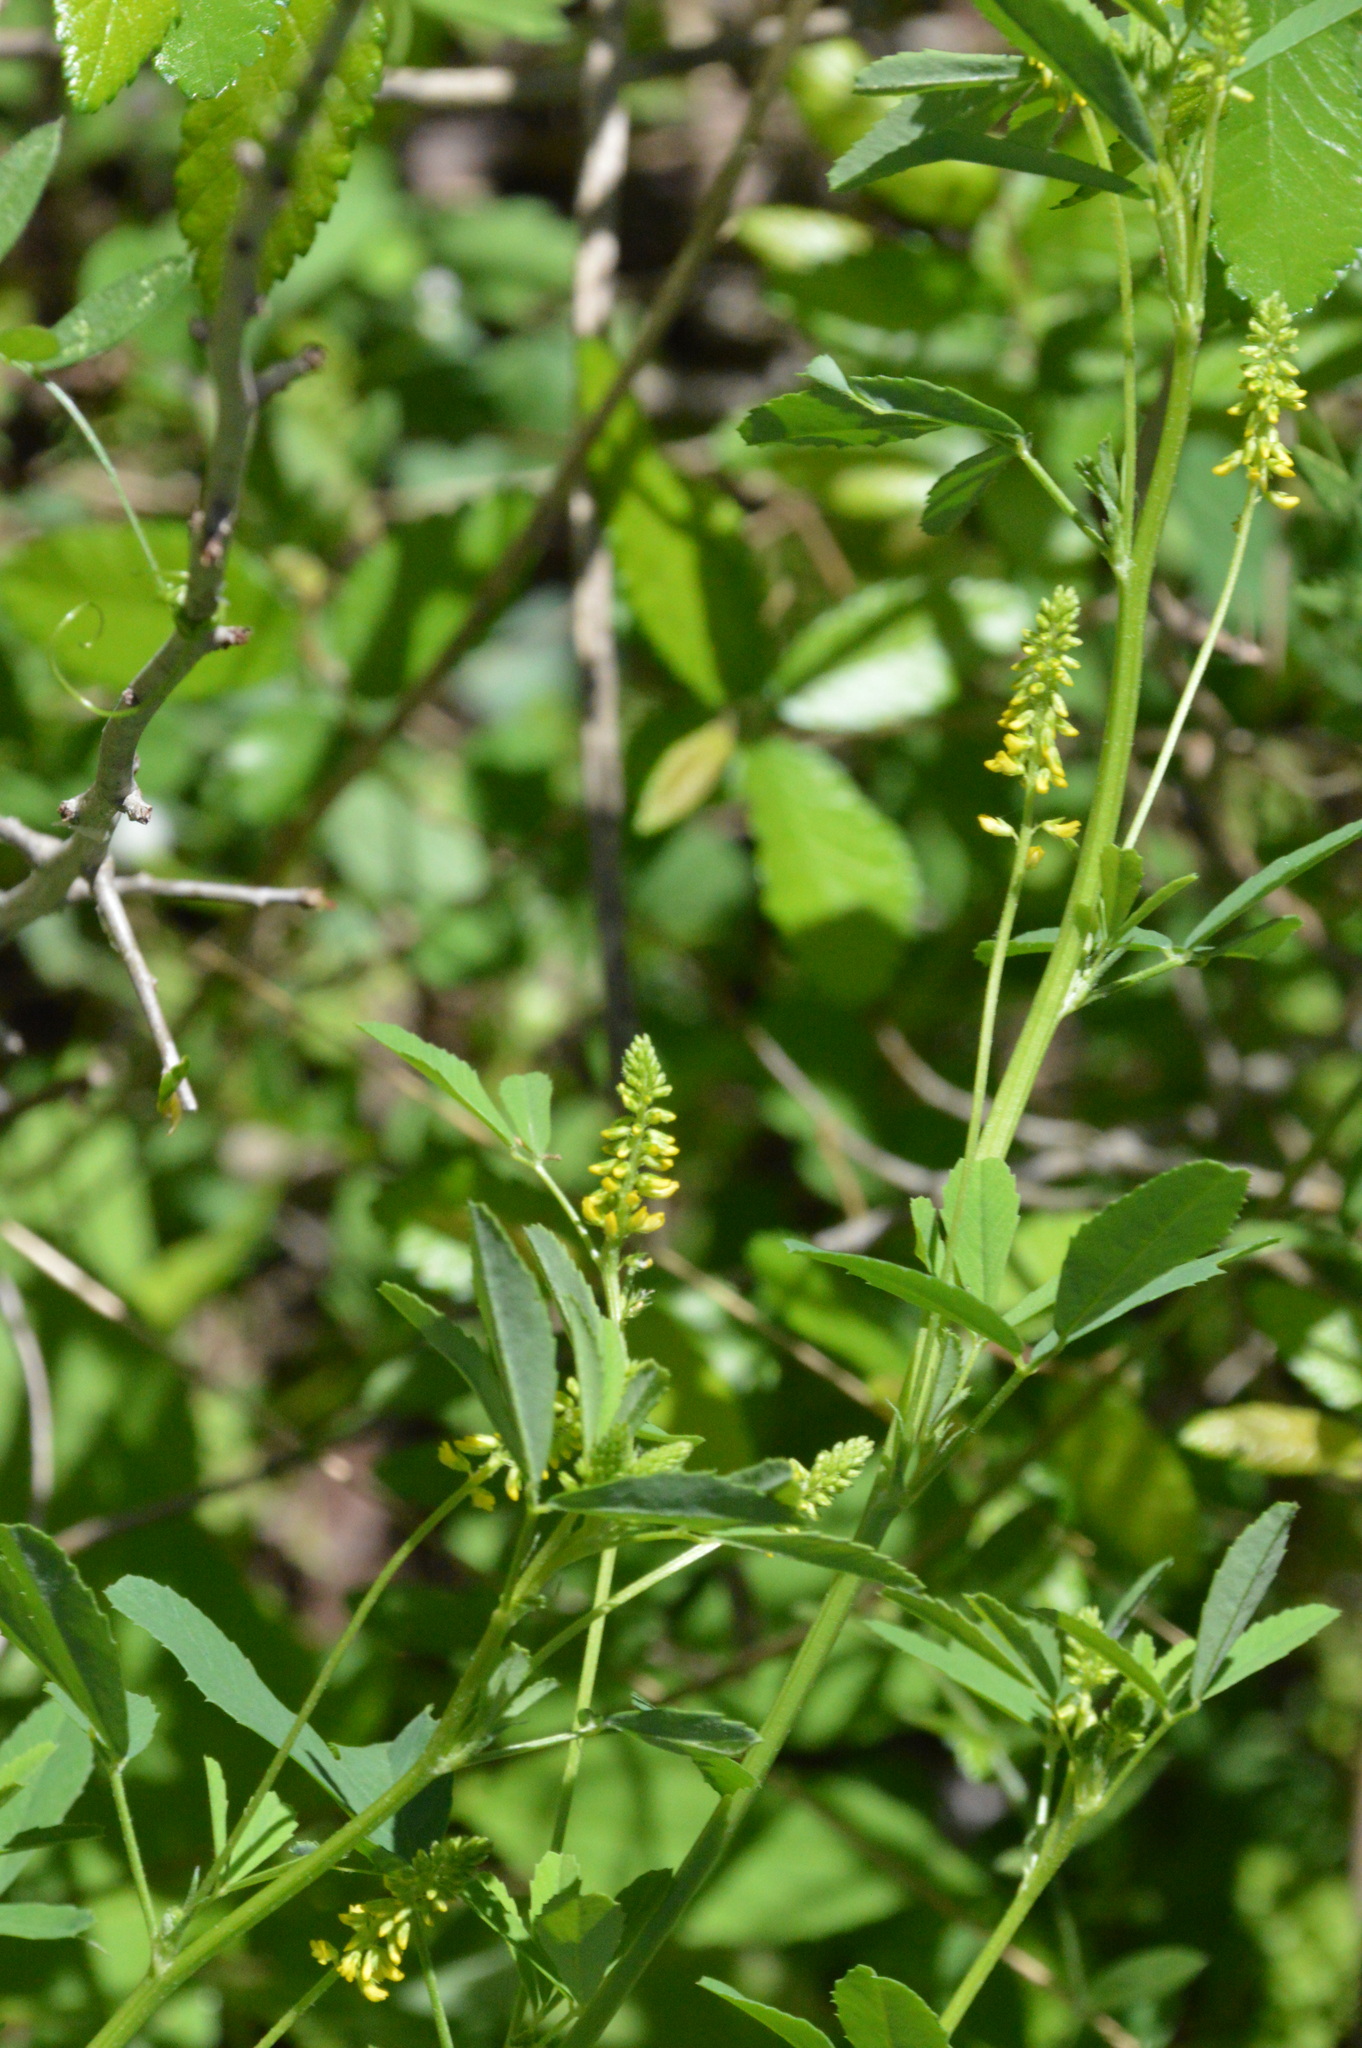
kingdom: Plantae
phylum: Tracheophyta
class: Magnoliopsida
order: Fabales
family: Fabaceae
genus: Melilotus
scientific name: Melilotus indicus
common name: Small melilot
